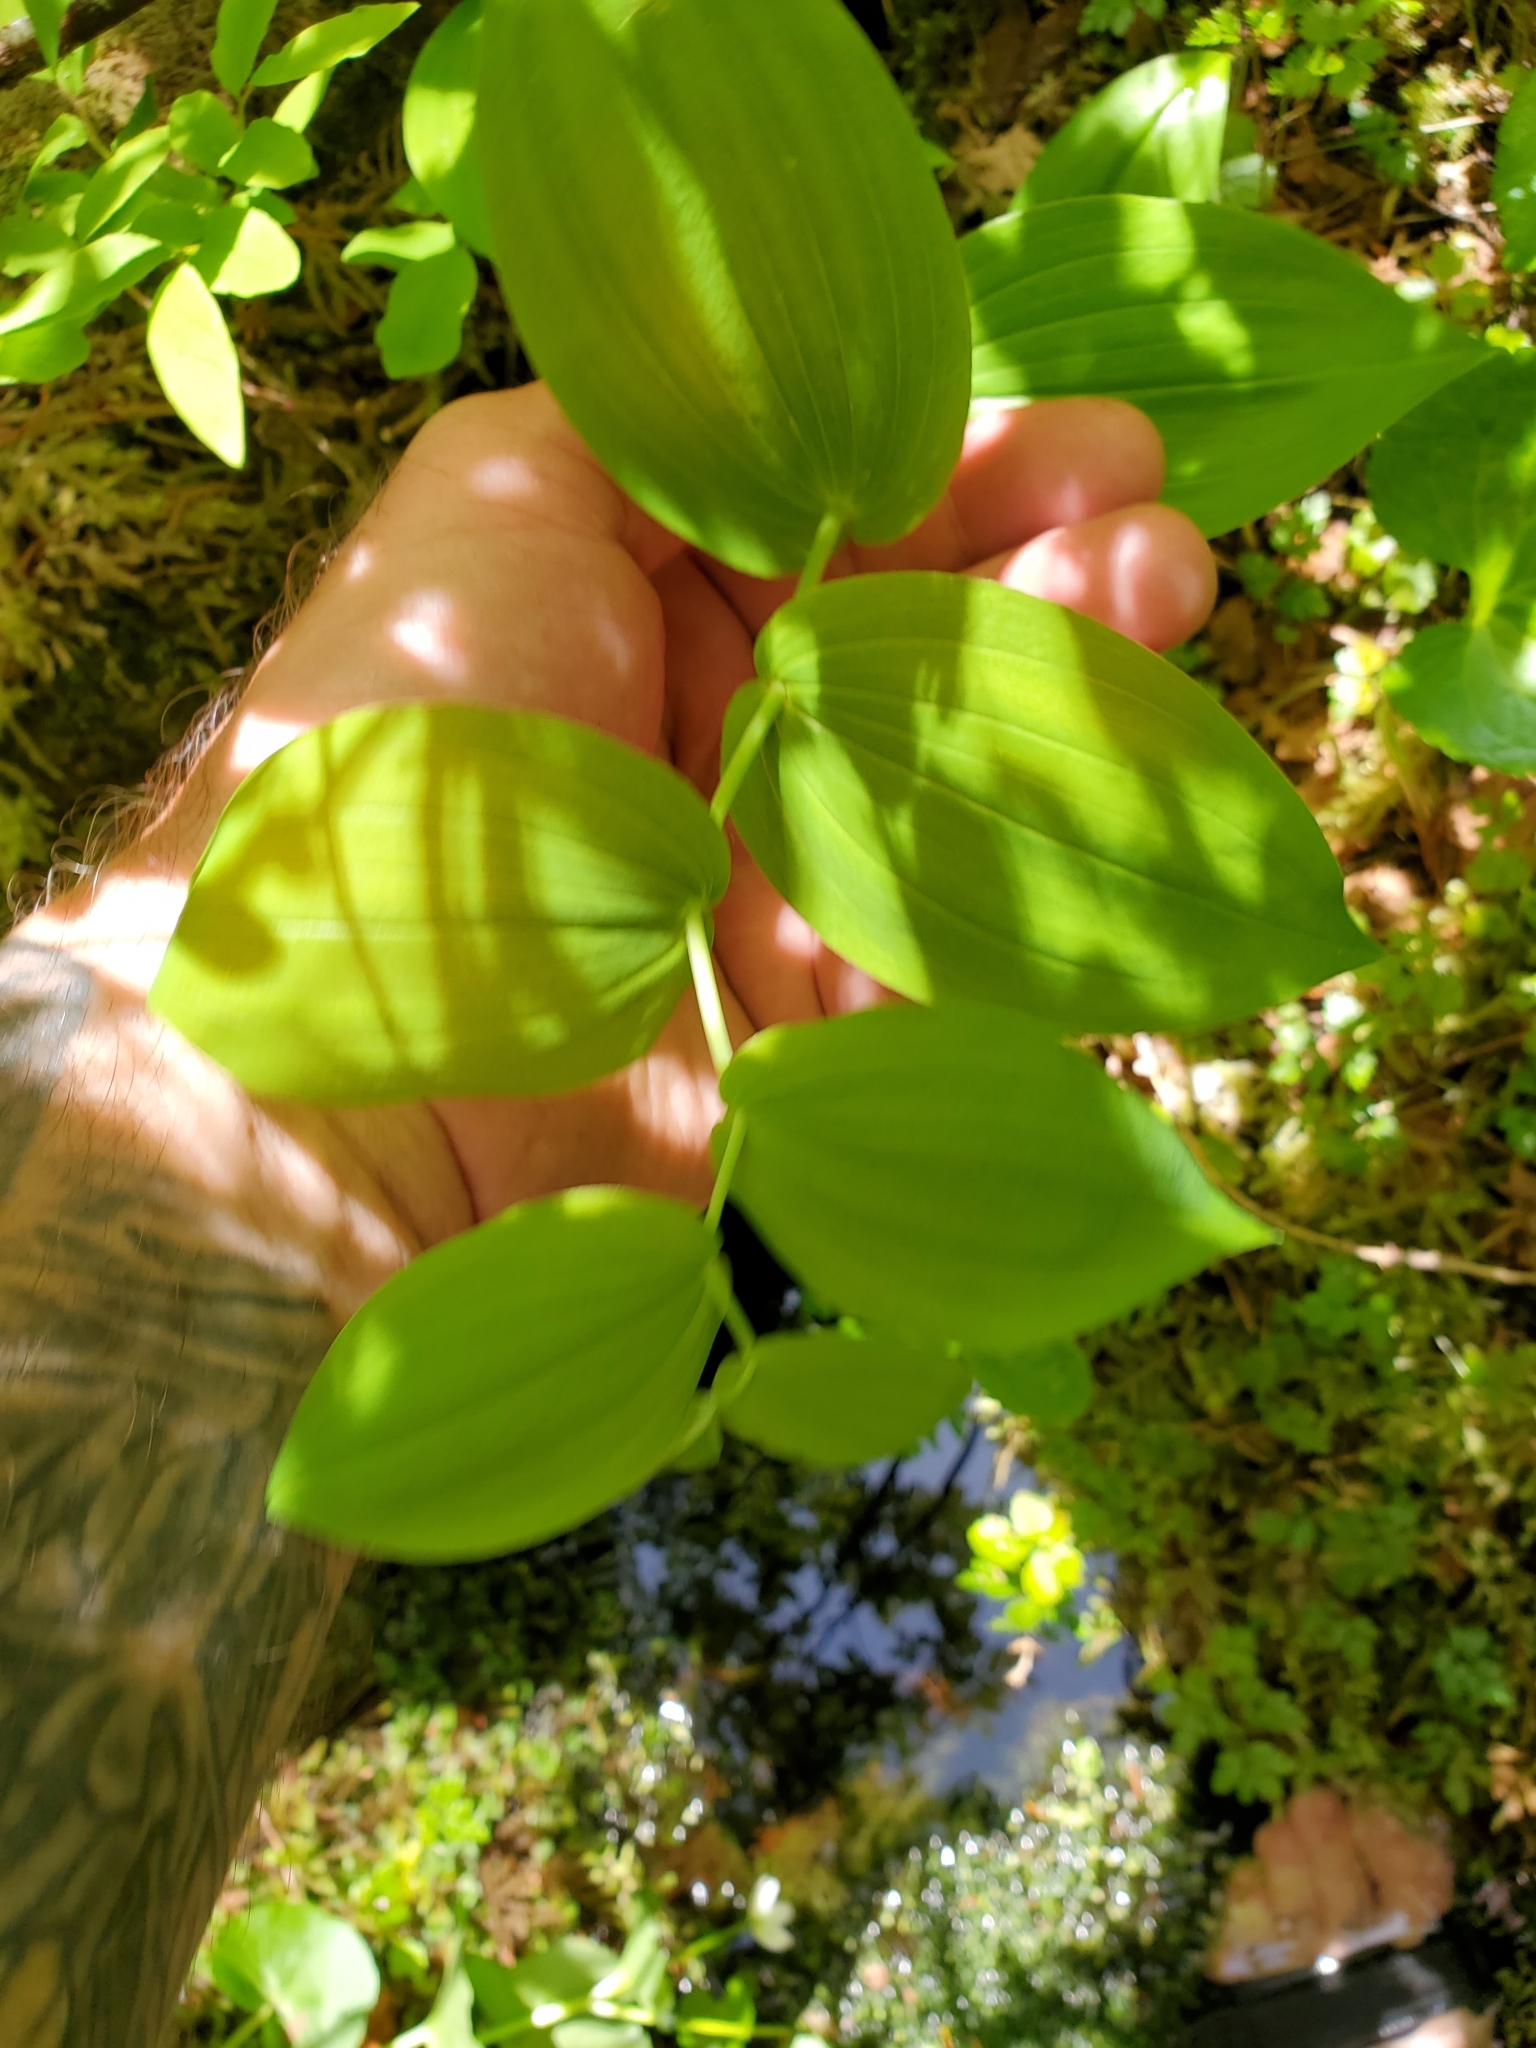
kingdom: Plantae
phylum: Tracheophyta
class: Liliopsida
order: Liliales
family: Liliaceae
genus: Streptopus
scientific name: Streptopus amplexifolius
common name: Clasp twisted stalk
